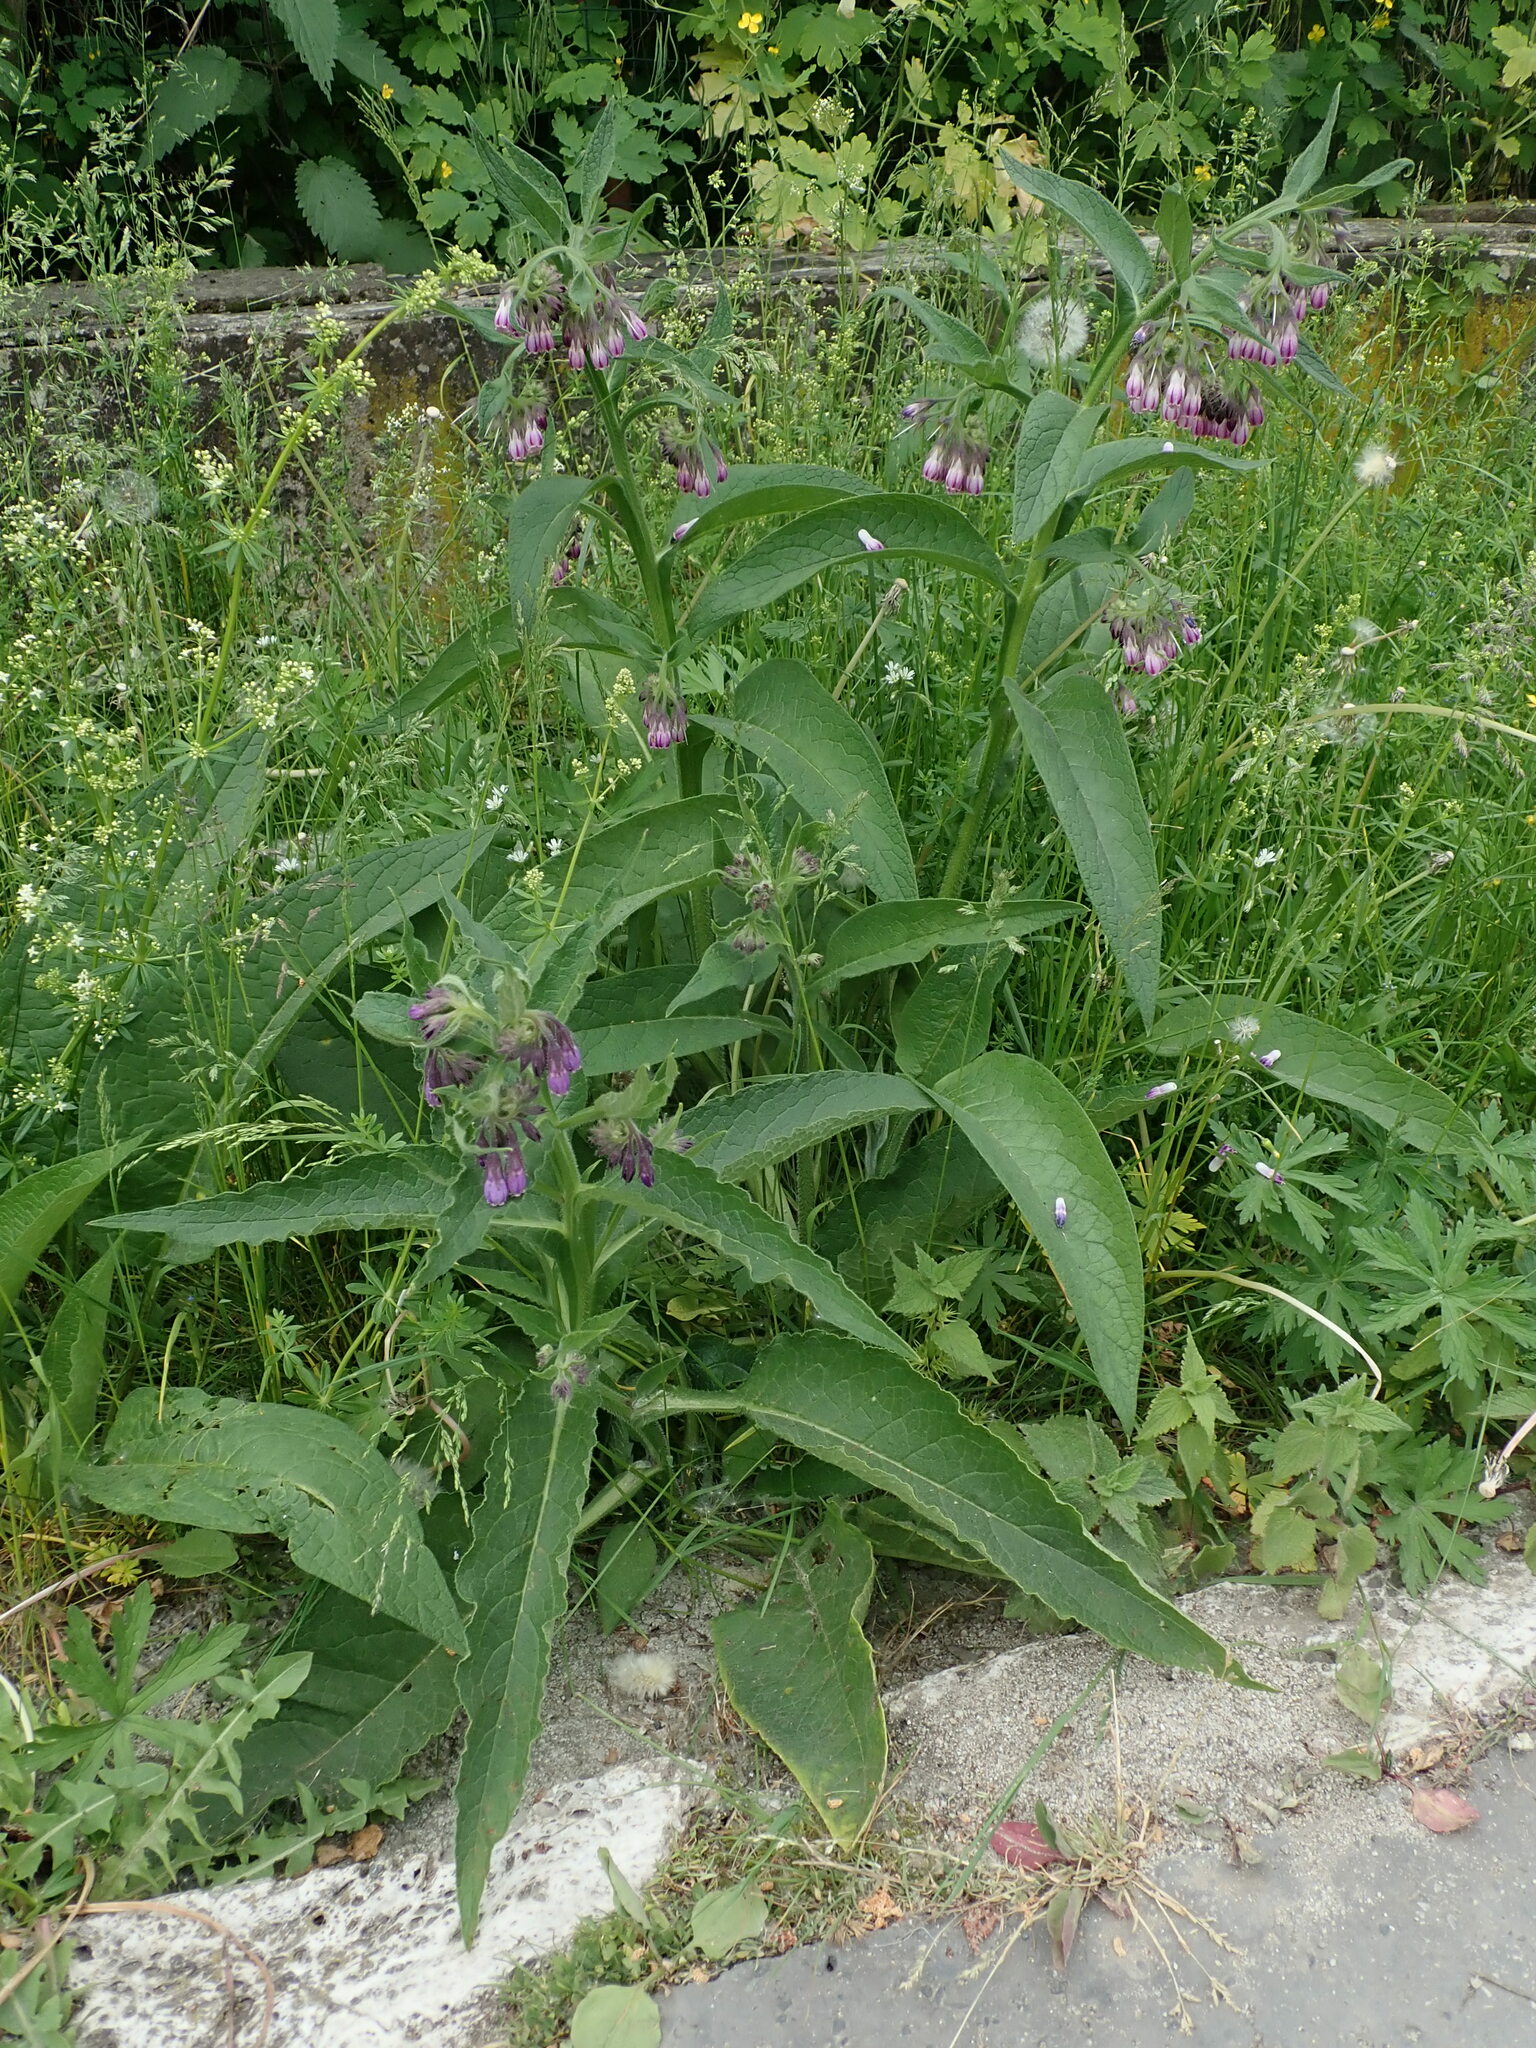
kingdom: Plantae
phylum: Tracheophyta
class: Magnoliopsida
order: Boraginales
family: Boraginaceae
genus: Symphytum
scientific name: Symphytum officinale
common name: Common comfrey
